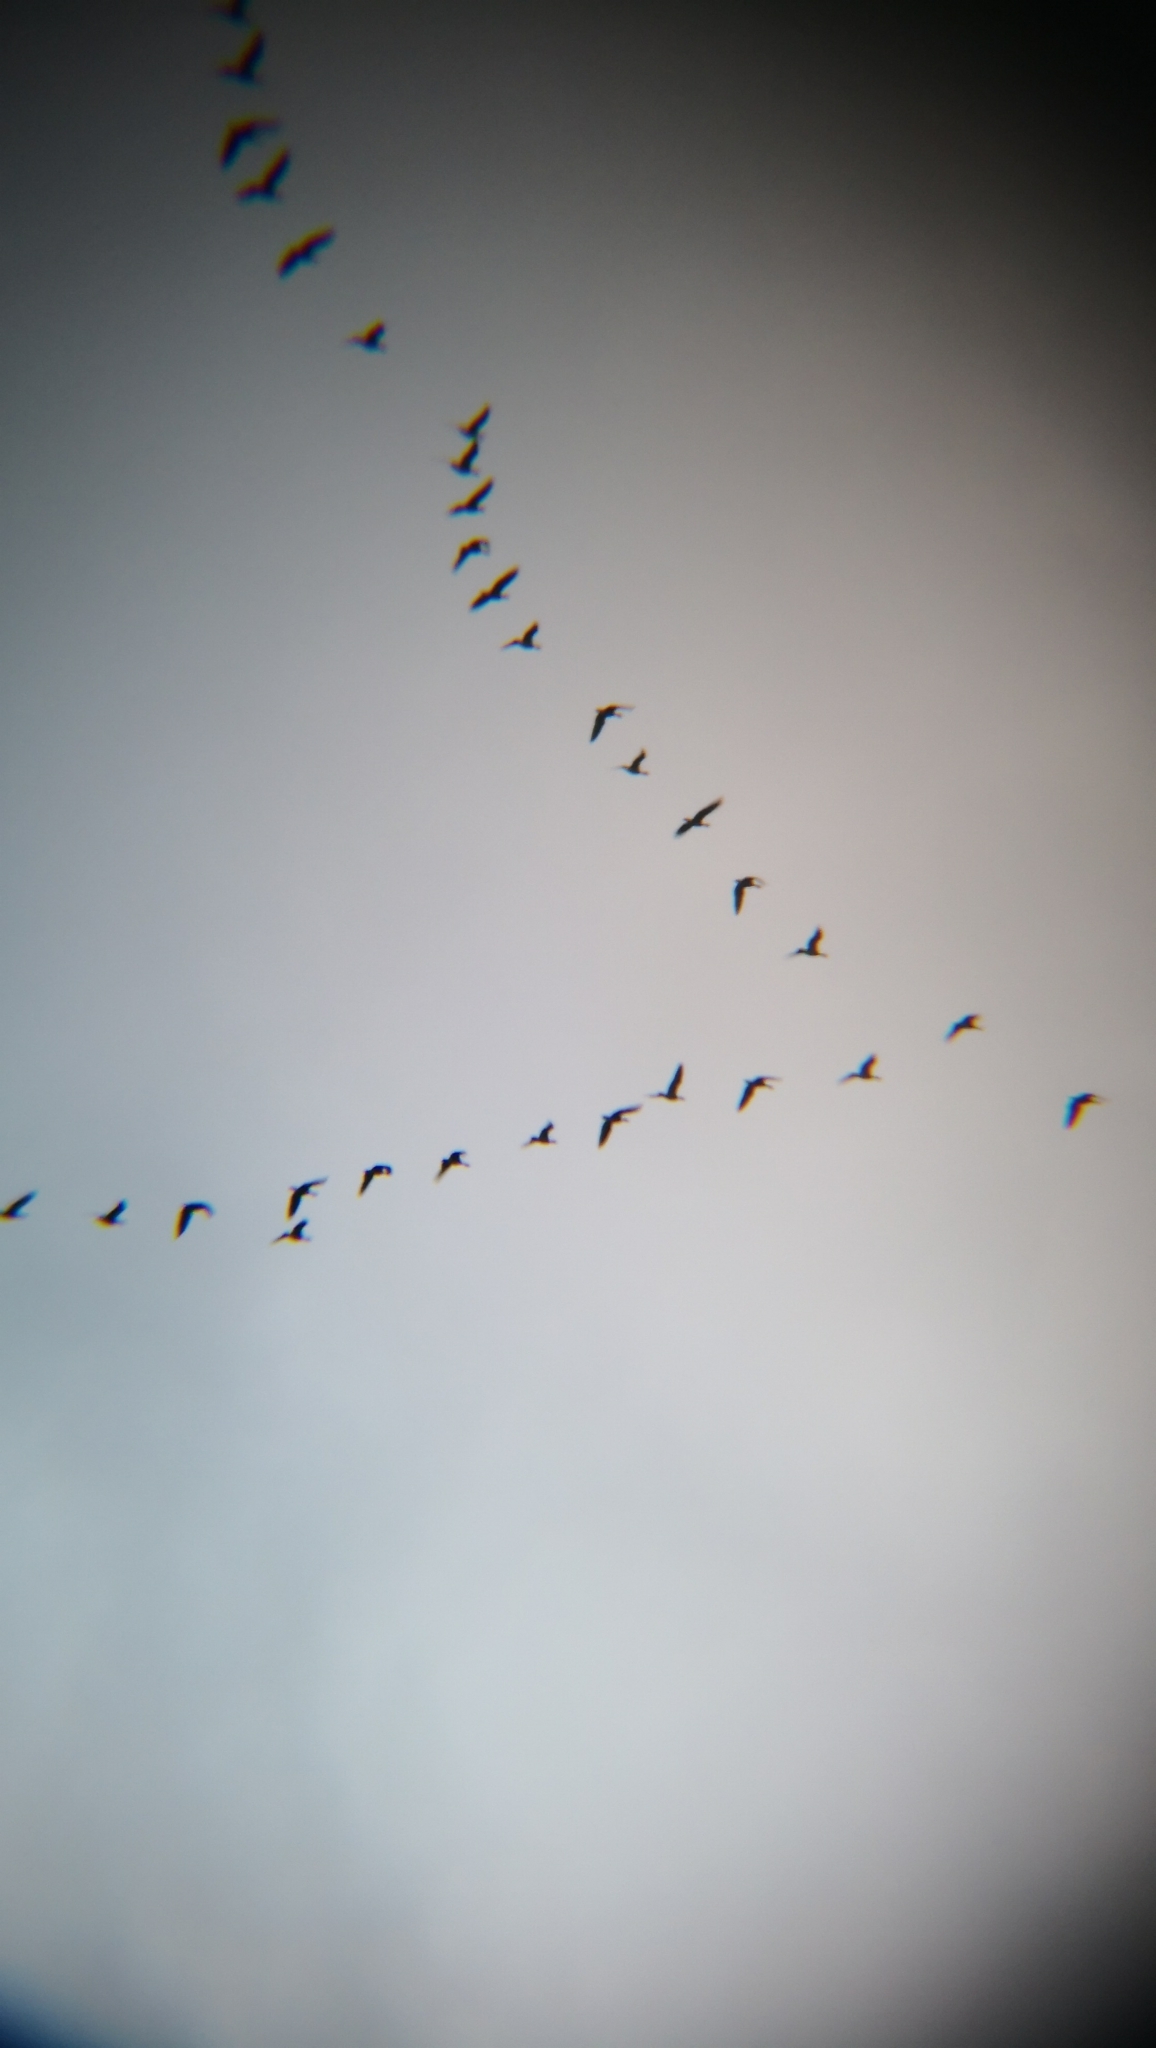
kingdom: Animalia
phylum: Chordata
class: Aves
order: Anseriformes
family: Anatidae
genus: Branta
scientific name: Branta canadensis
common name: Canada goose
